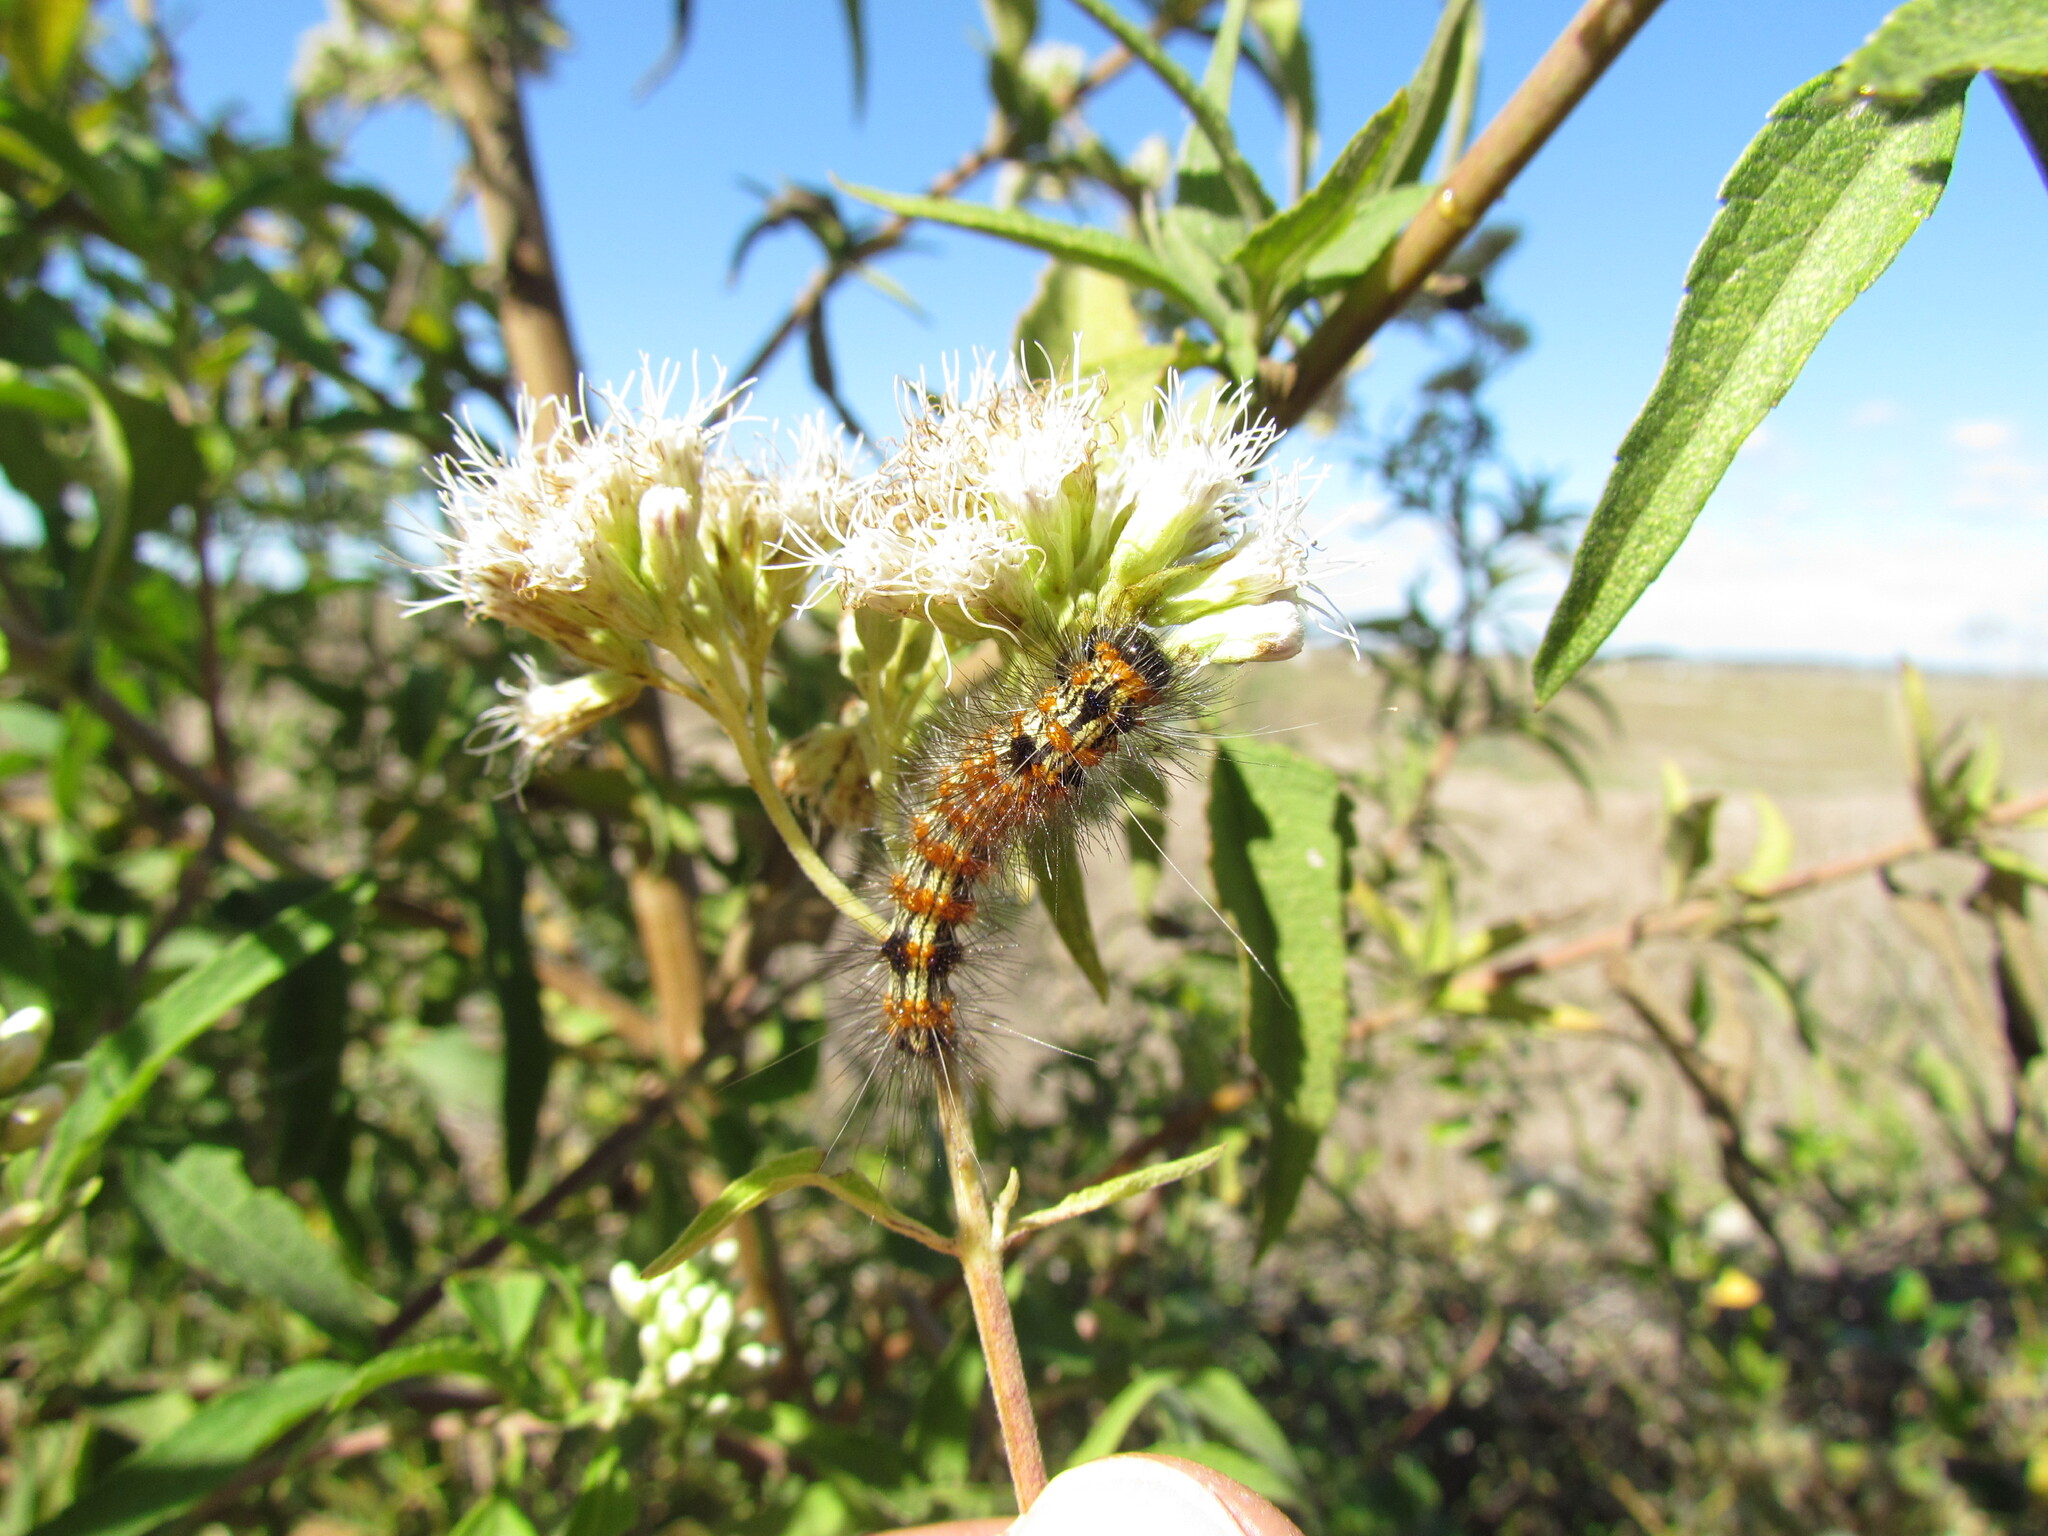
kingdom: Animalia
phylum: Arthropoda
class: Insecta
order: Lepidoptera
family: Erebidae
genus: Dysschema
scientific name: Dysschema sacrifica
